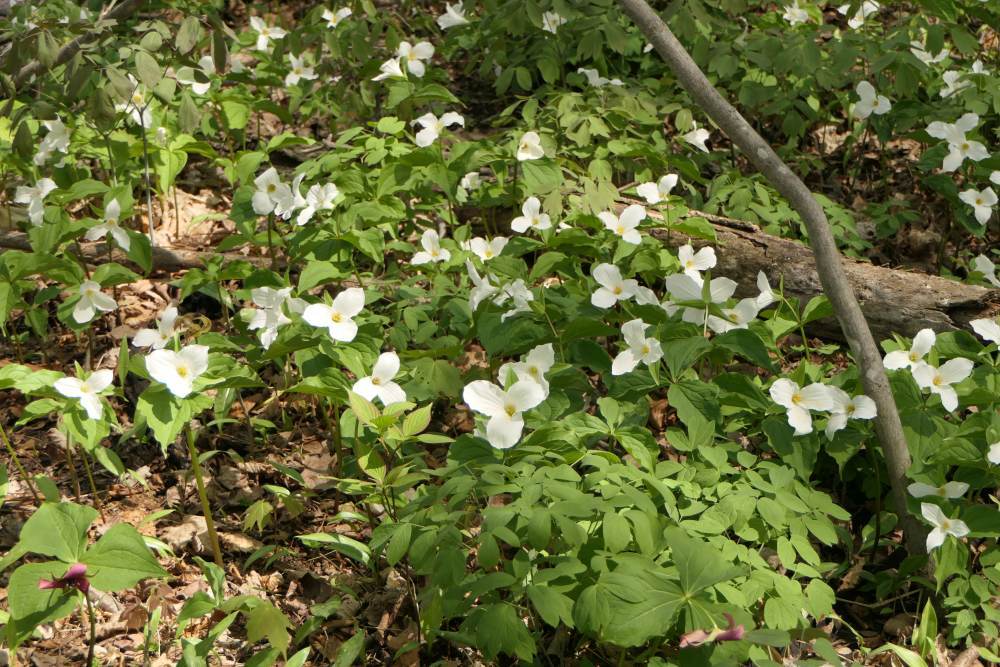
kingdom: Plantae
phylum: Tracheophyta
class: Liliopsida
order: Liliales
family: Melanthiaceae
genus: Trillium
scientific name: Trillium grandiflorum
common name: Great white trillium
